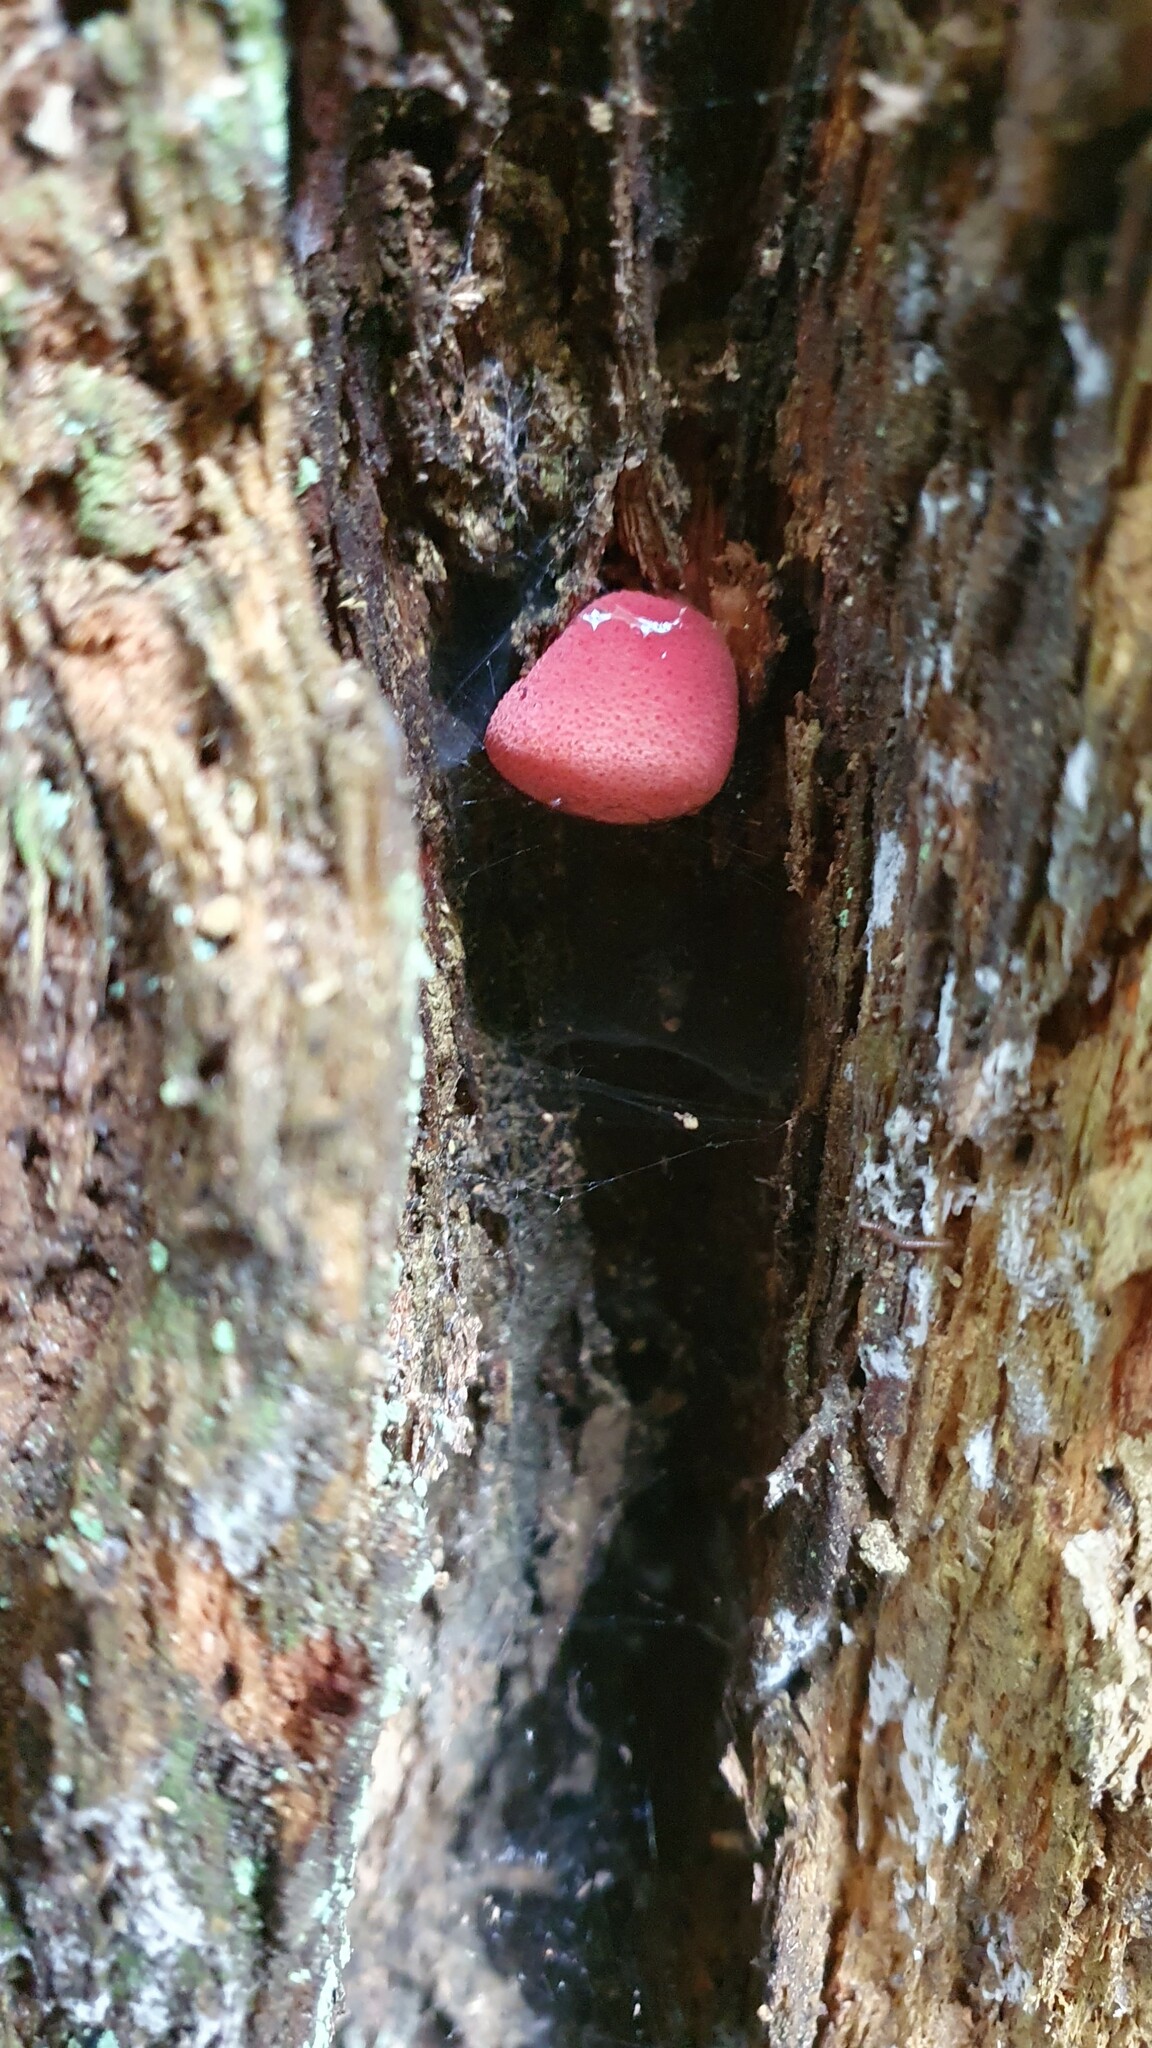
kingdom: Fungi
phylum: Basidiomycota
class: Agaricomycetes
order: Agaricales
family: Fistulinaceae
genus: Fistulina
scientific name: Fistulina hepatica
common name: Beef-steak fungus
